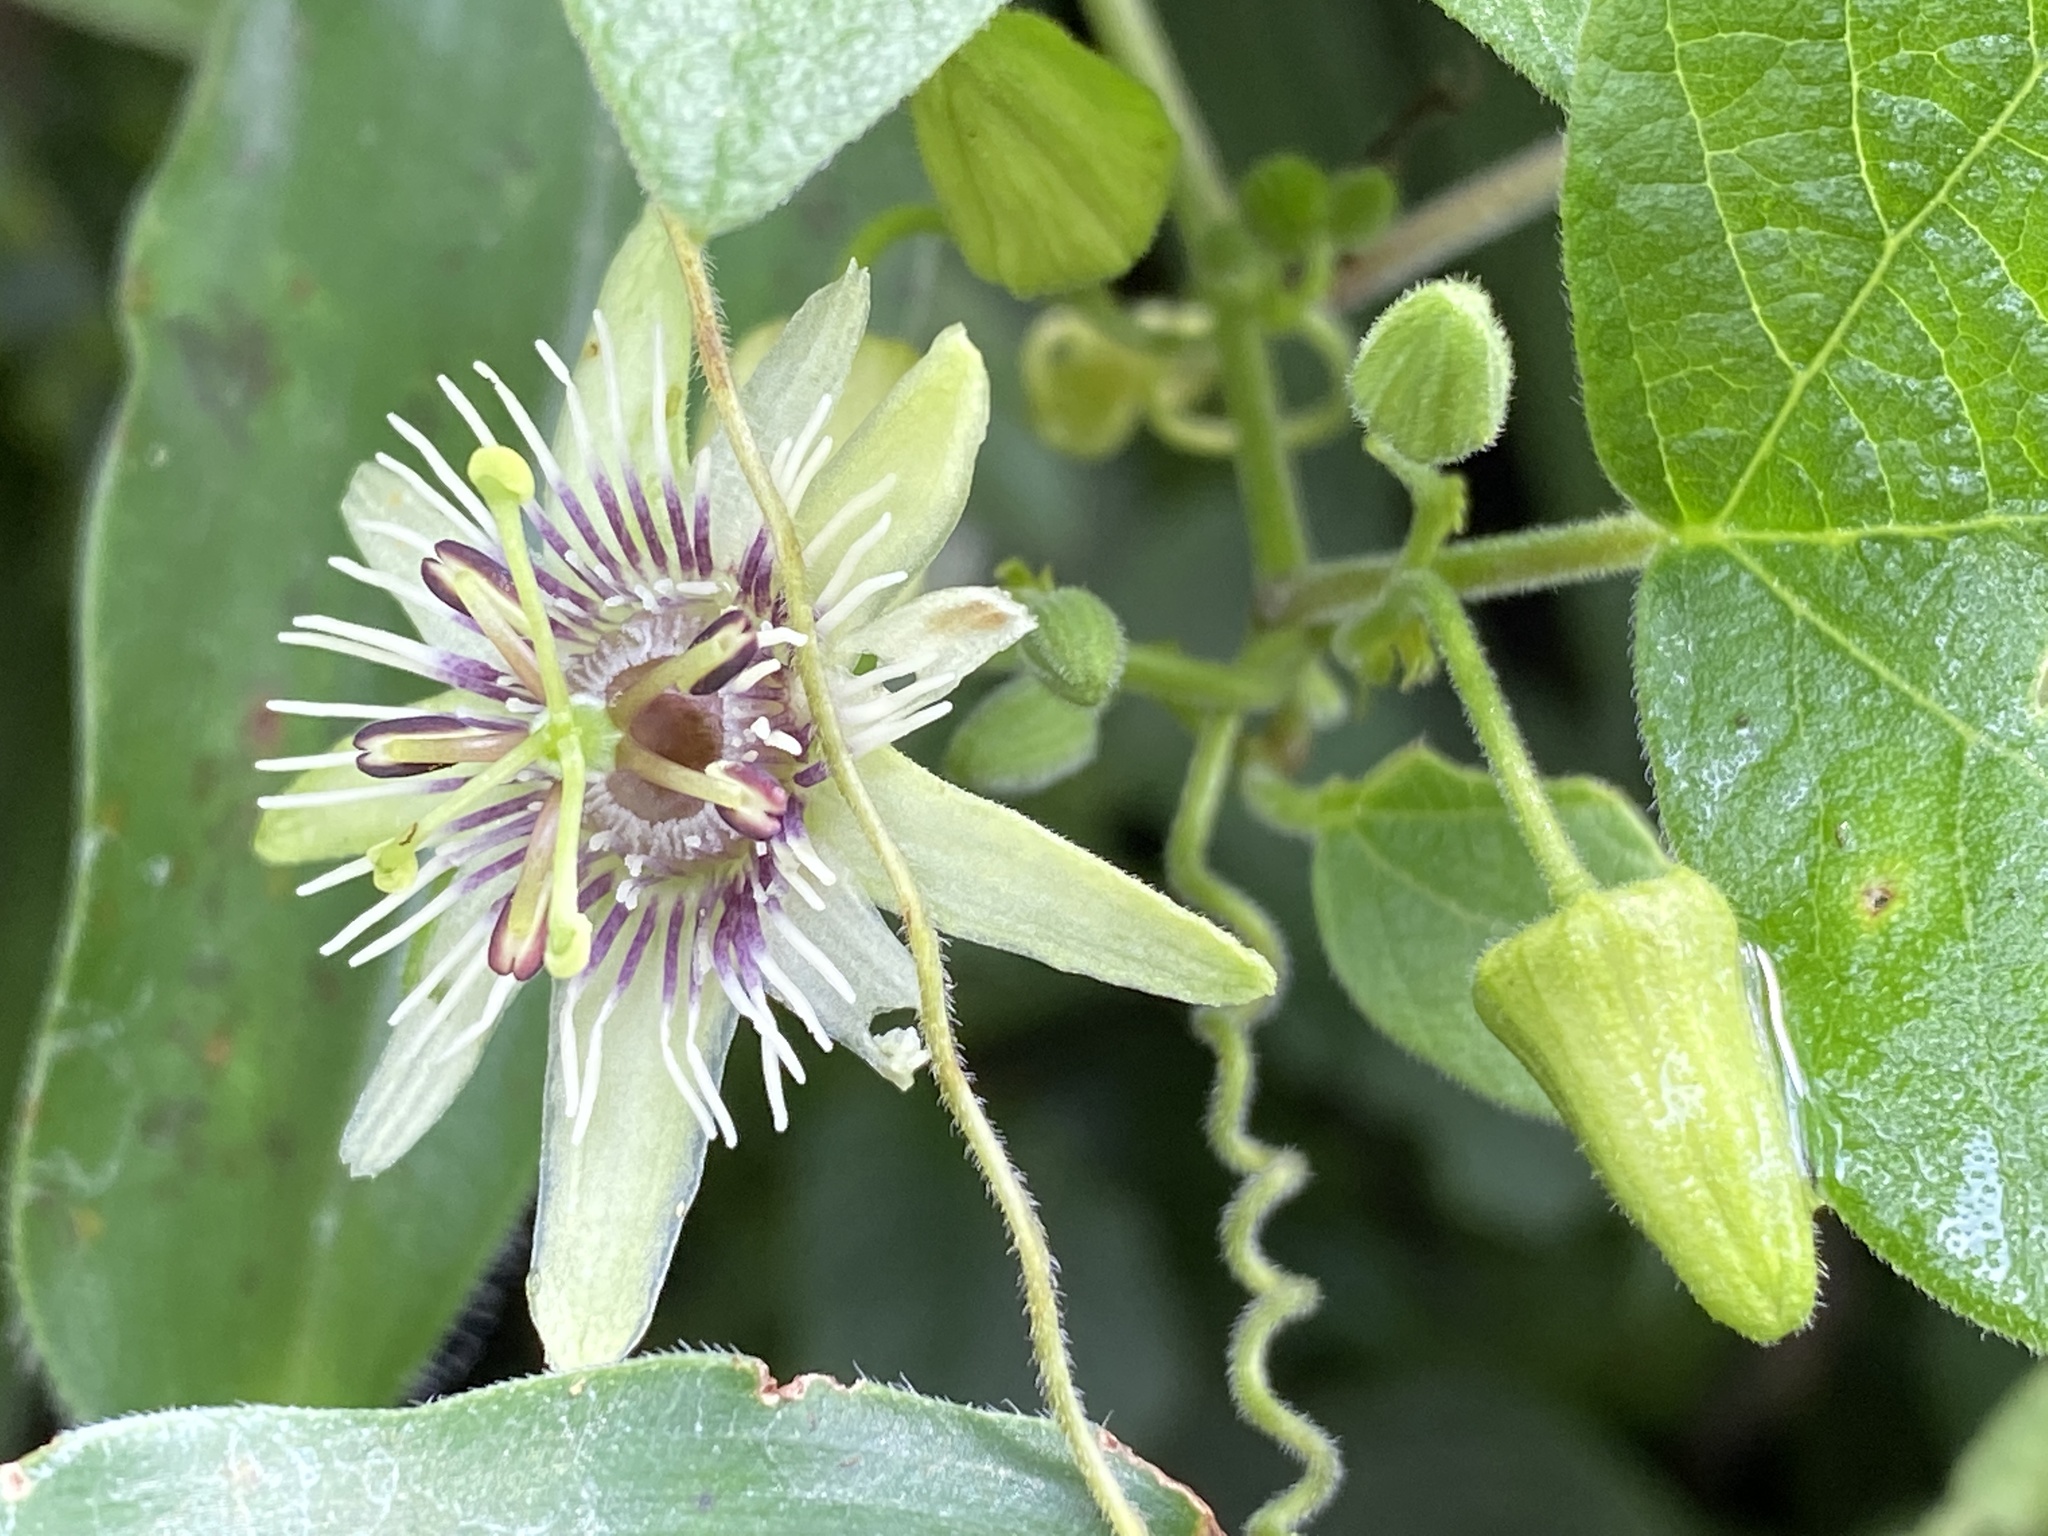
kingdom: Plantae
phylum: Tracheophyta
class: Magnoliopsida
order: Malpighiales
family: Passifloraceae
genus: Passiflora
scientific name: Passiflora sexflora
